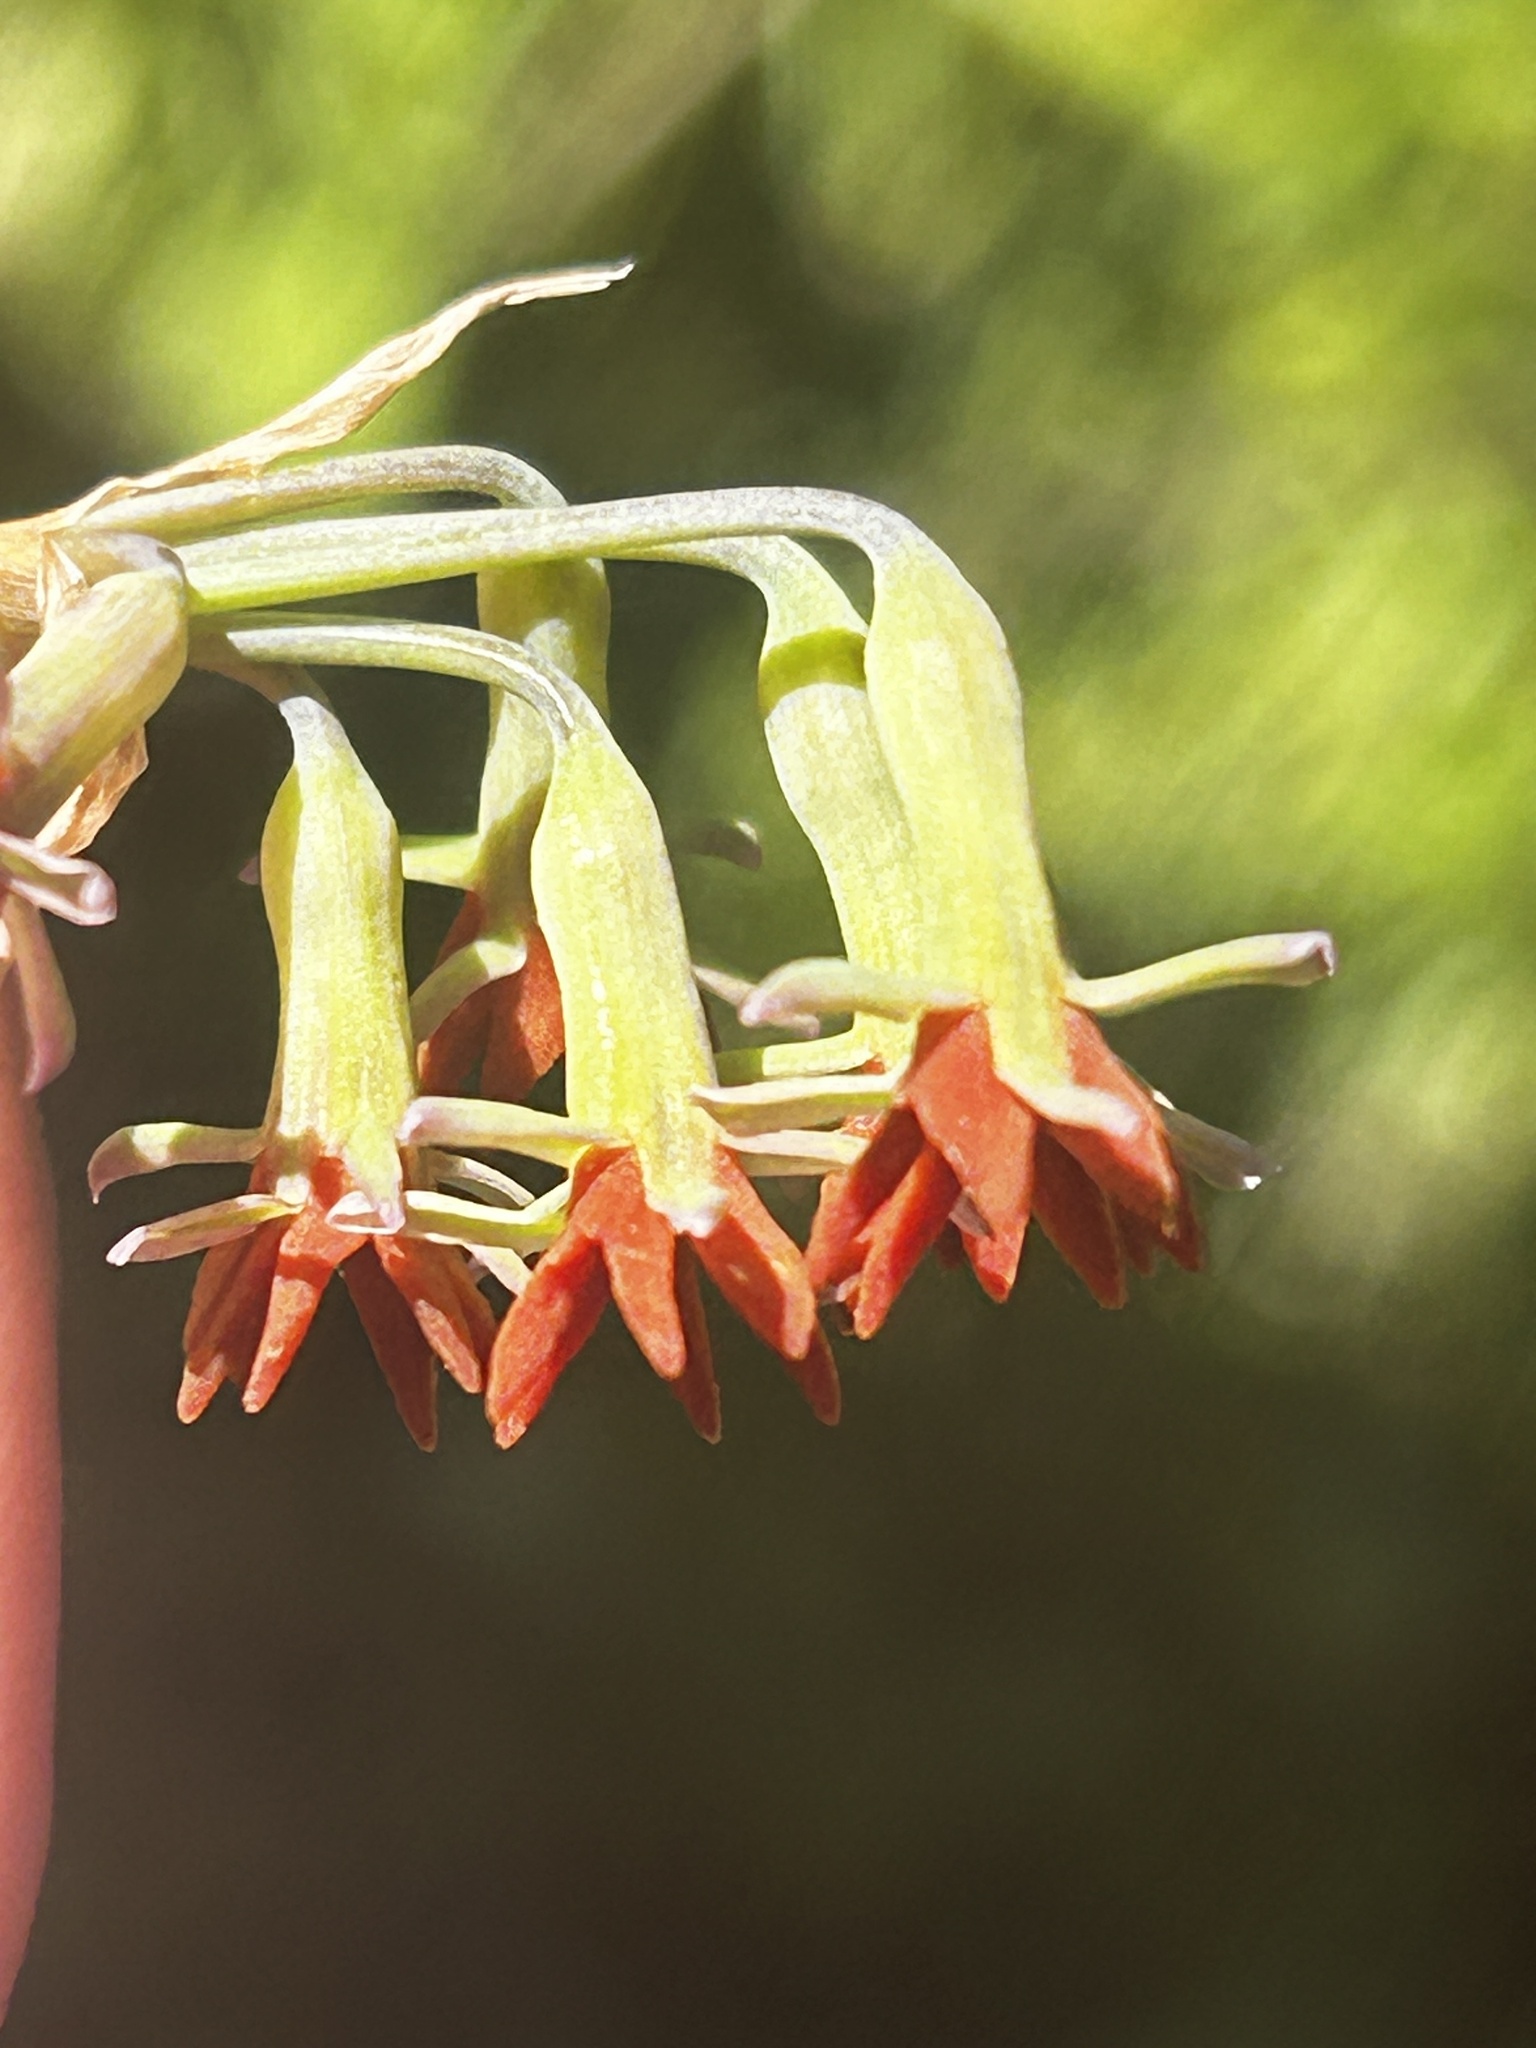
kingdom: Plantae
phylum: Tracheophyta
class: Liliopsida
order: Asparagales
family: Amaryllidaceae
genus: Tulbaghia
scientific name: Tulbaghia capensis
